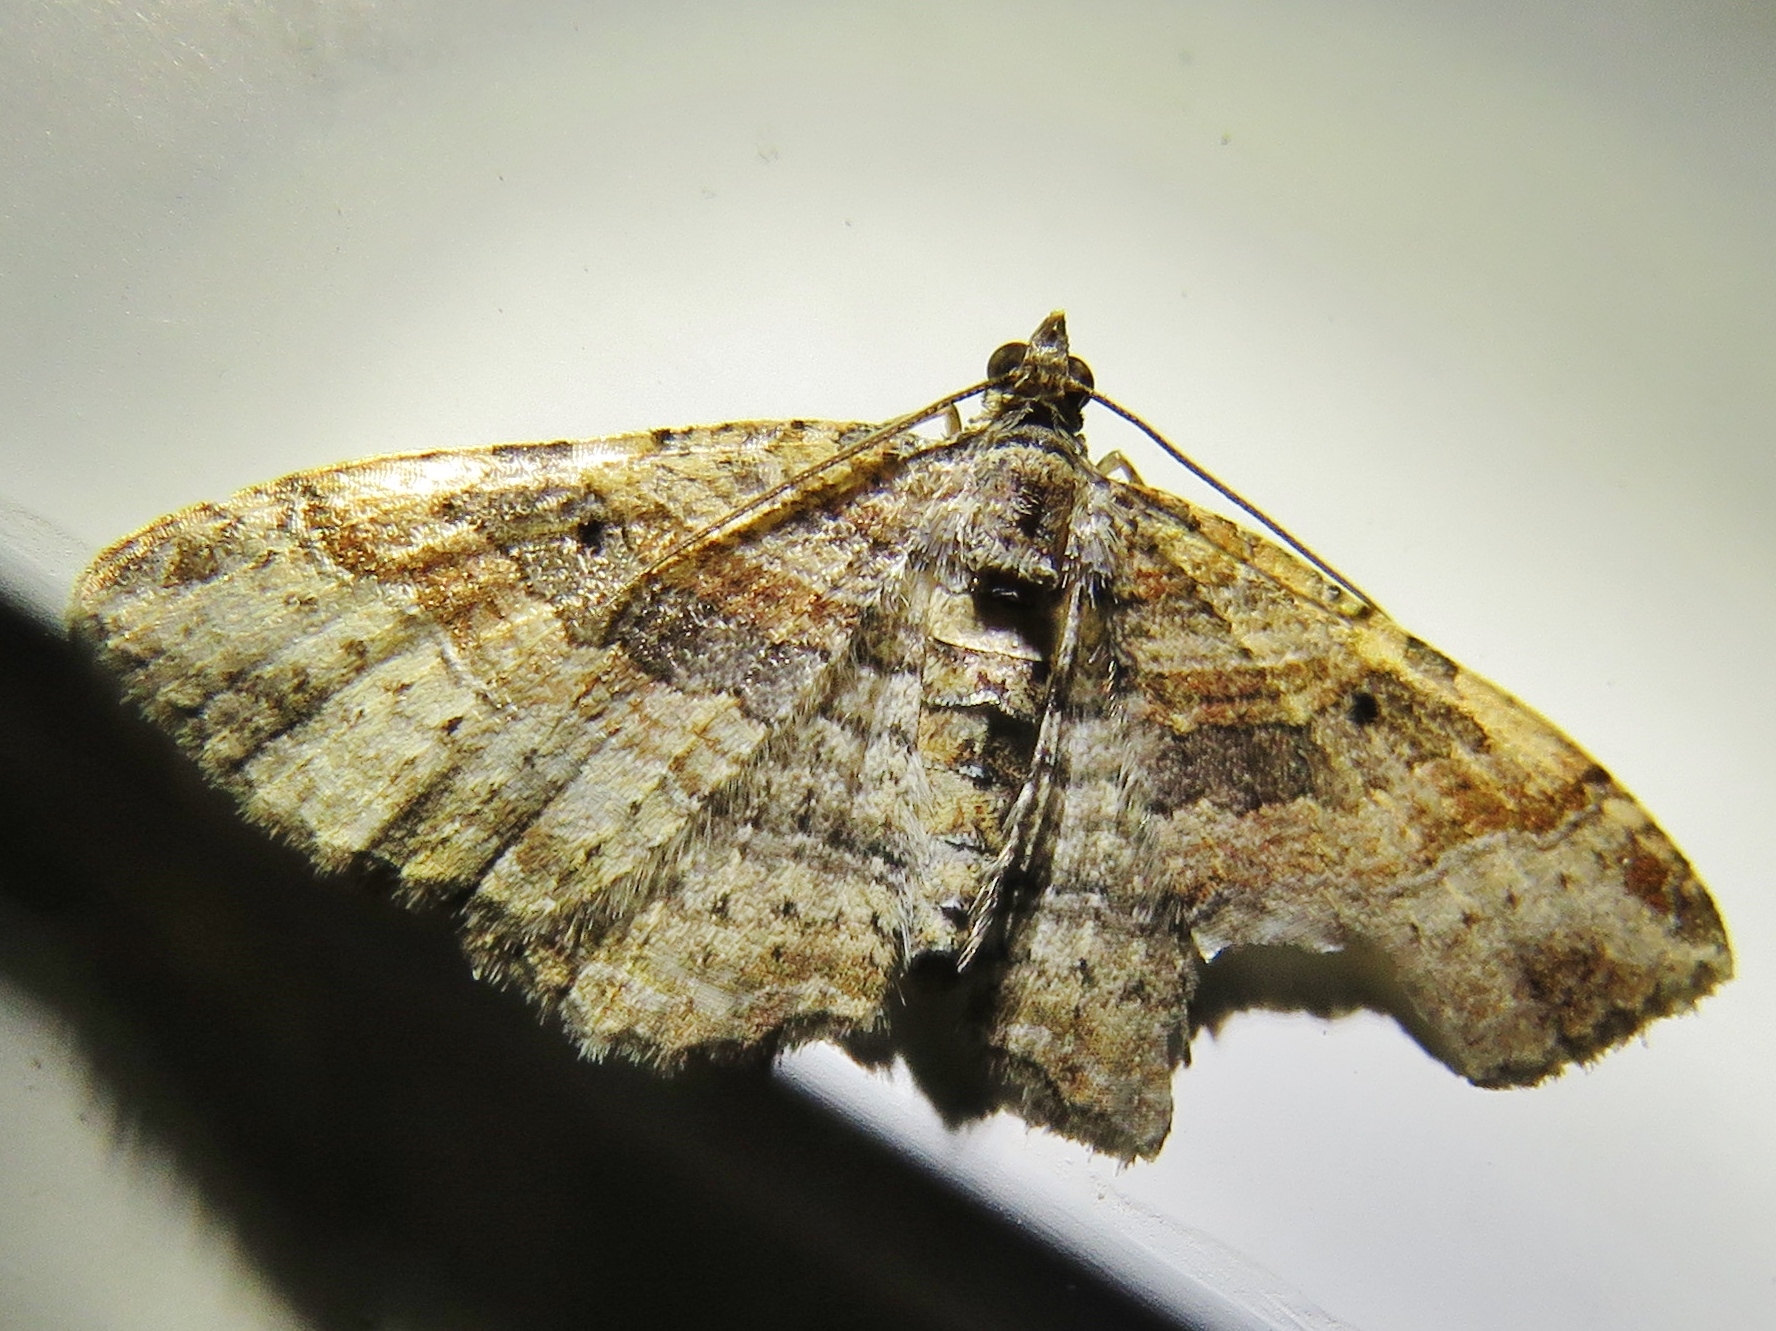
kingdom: Animalia
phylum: Arthropoda
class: Insecta
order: Lepidoptera
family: Geometridae
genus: Costaconvexa
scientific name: Costaconvexa centrostrigaria
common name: Bent-line carpet
